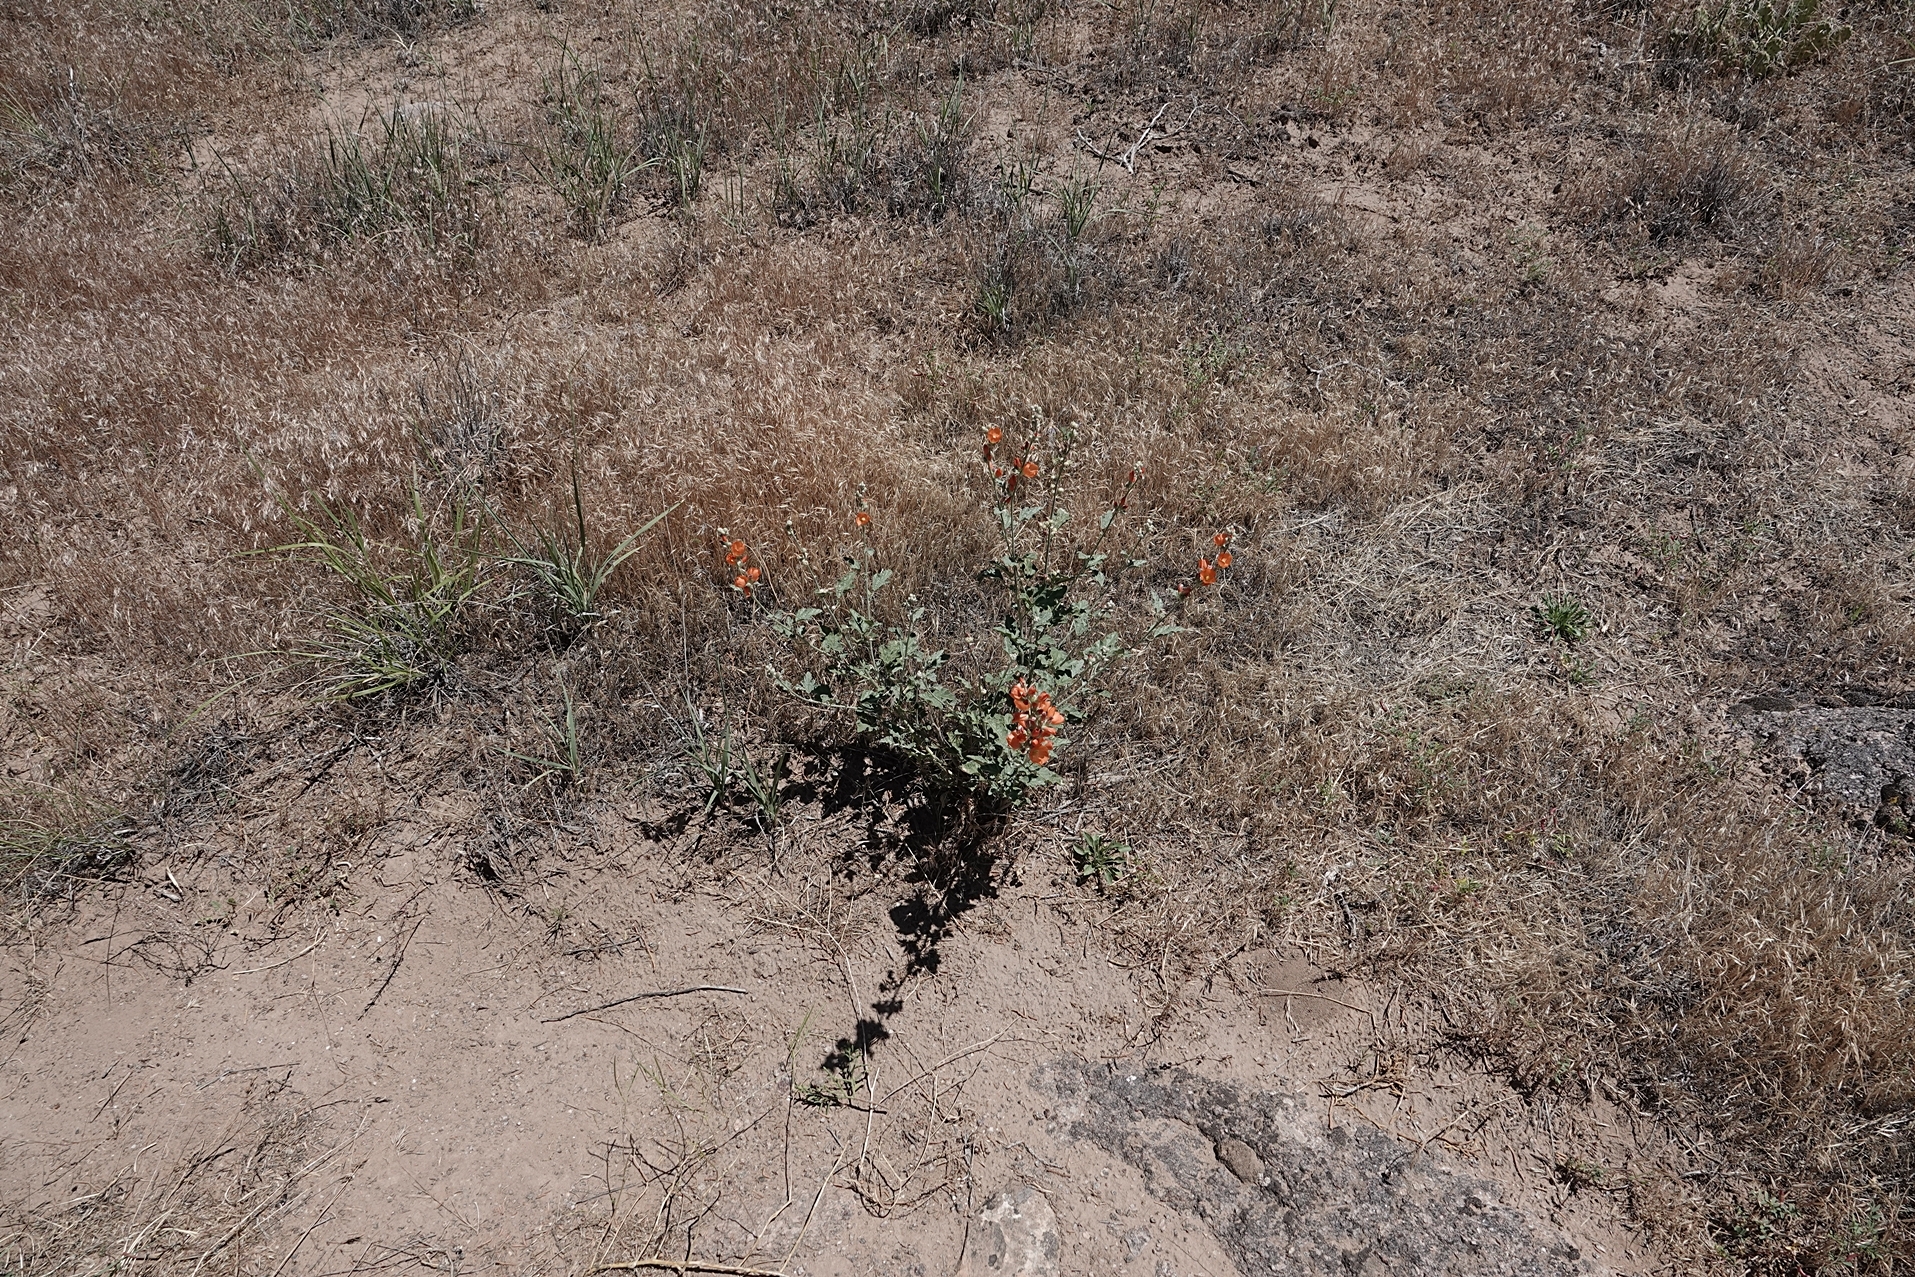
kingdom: Plantae
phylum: Tracheophyta
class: Magnoliopsida
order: Malvales
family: Malvaceae
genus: Sphaeralcea
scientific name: Sphaeralcea ambigua
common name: Apricot globe-mallow
